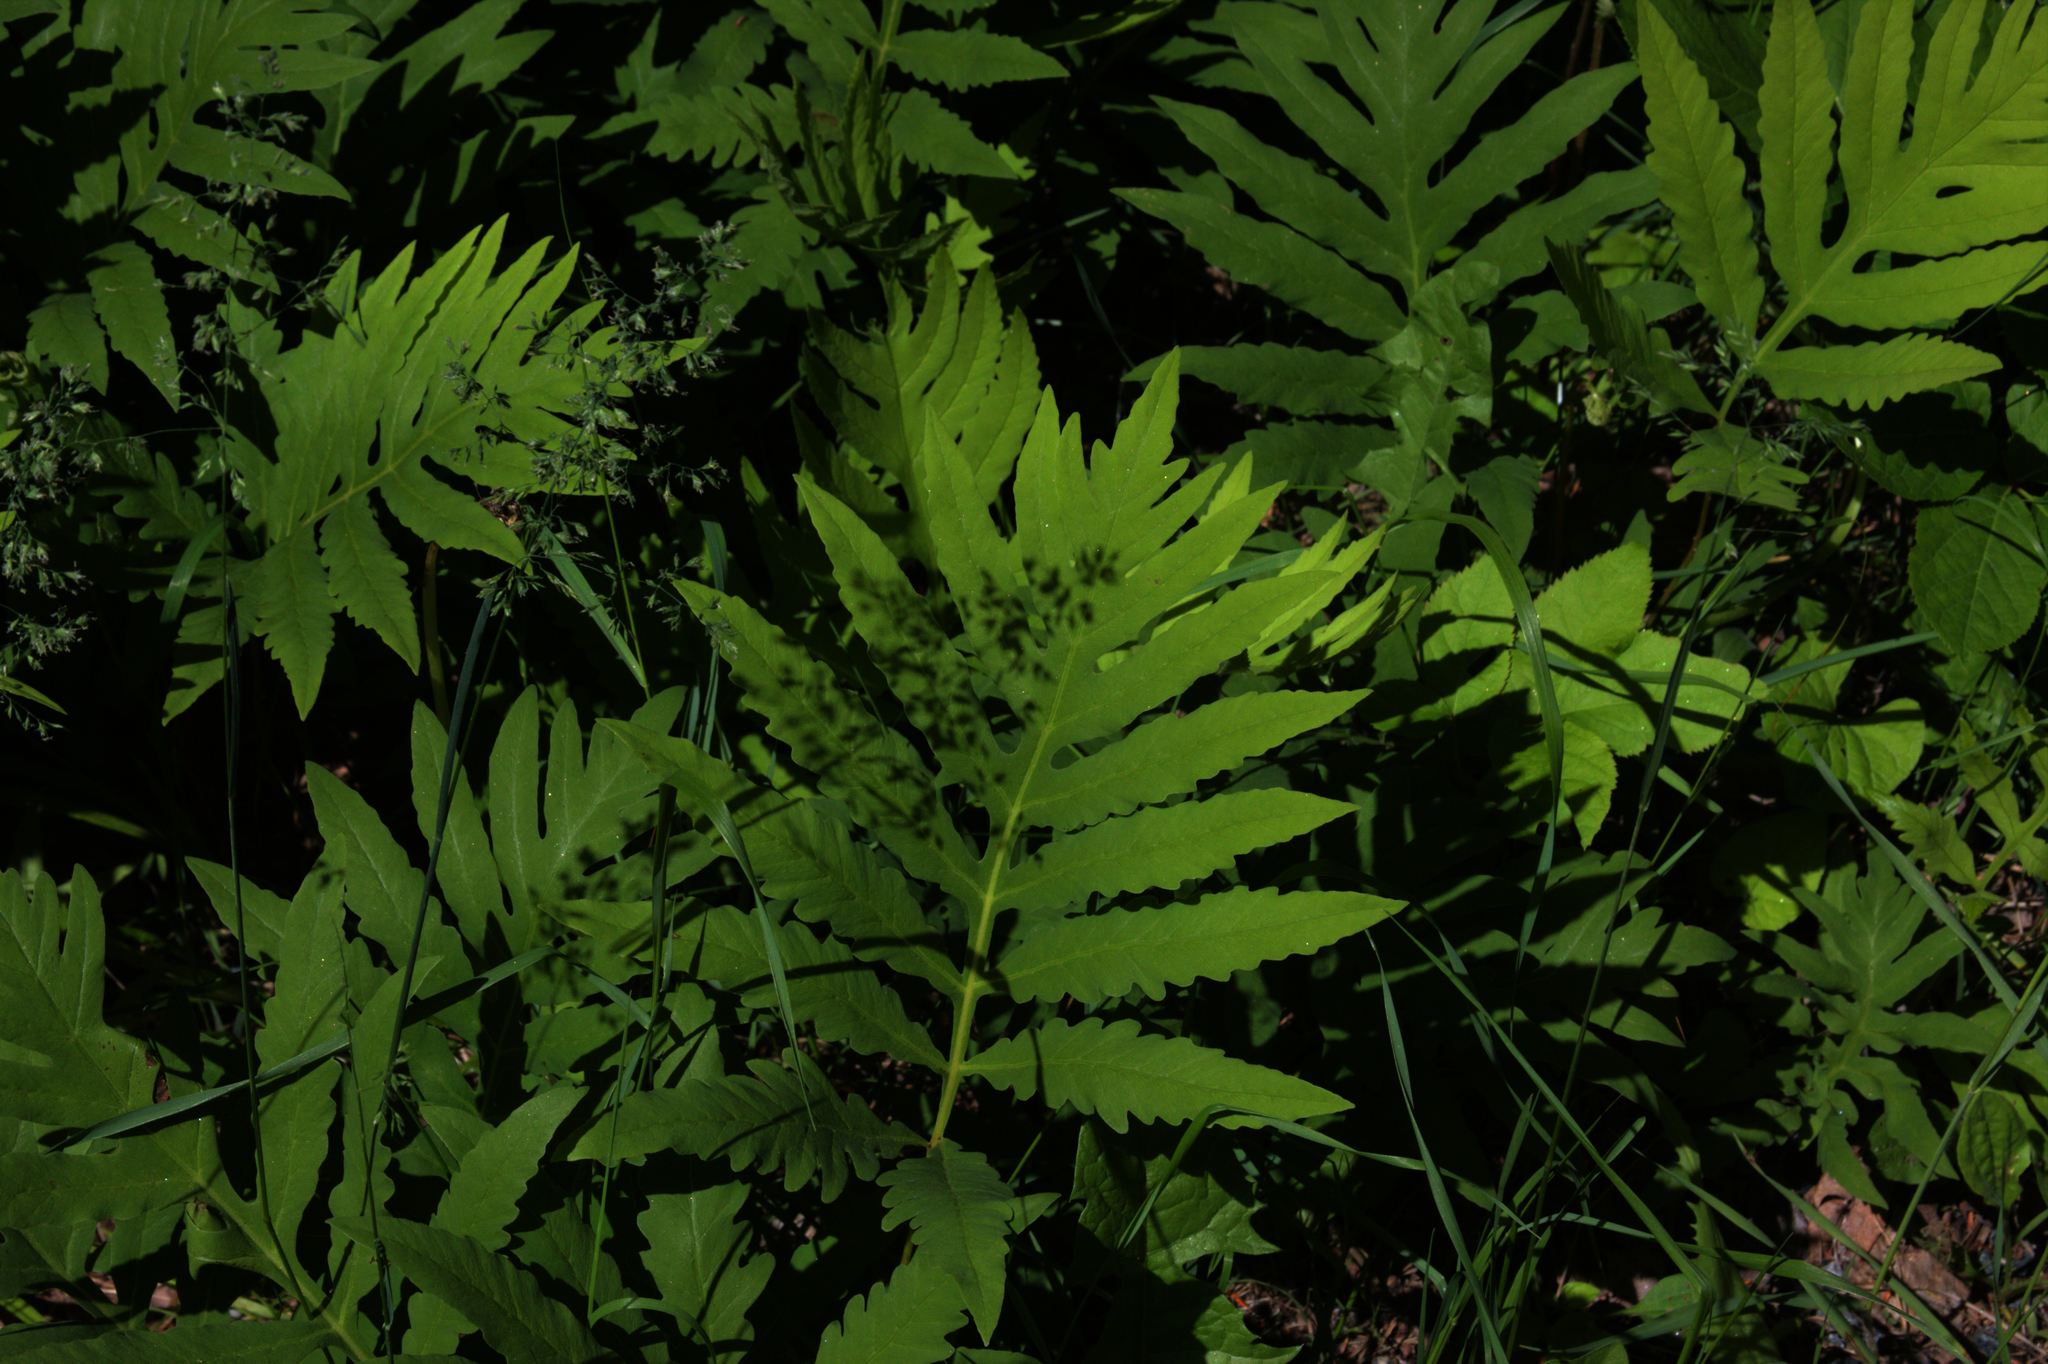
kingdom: Plantae
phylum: Tracheophyta
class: Polypodiopsida
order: Polypodiales
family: Onocleaceae
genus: Onoclea
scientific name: Onoclea sensibilis
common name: Sensitive fern
